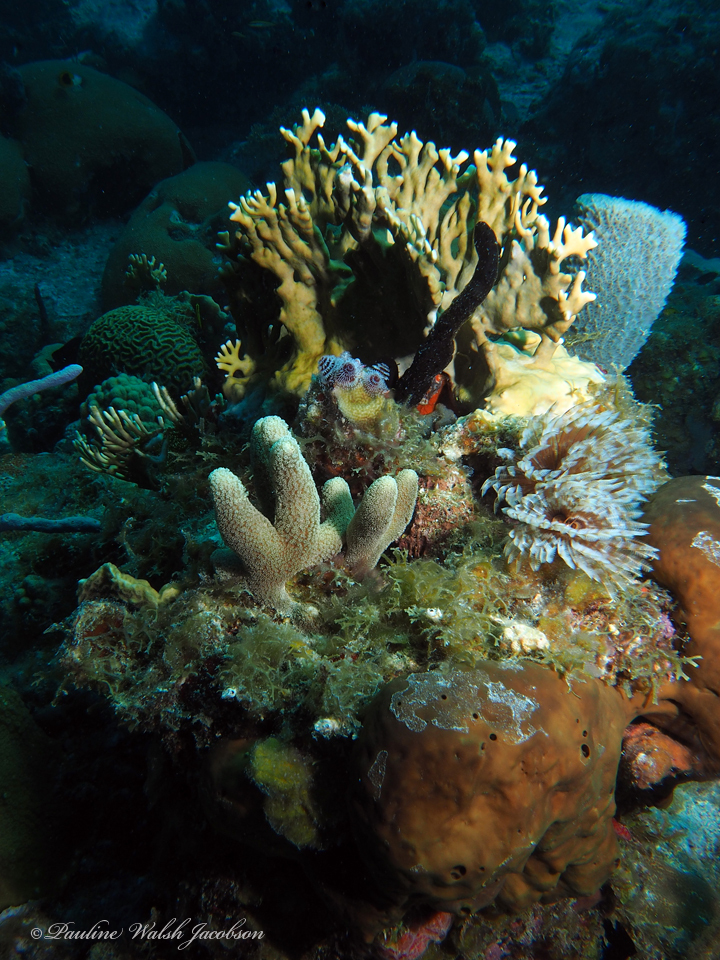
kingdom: Animalia
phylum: Porifera
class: Demospongiae
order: Haplosclerida
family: Niphatidae
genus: Niphates
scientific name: Niphates digitalis
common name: Pink vase sponge
